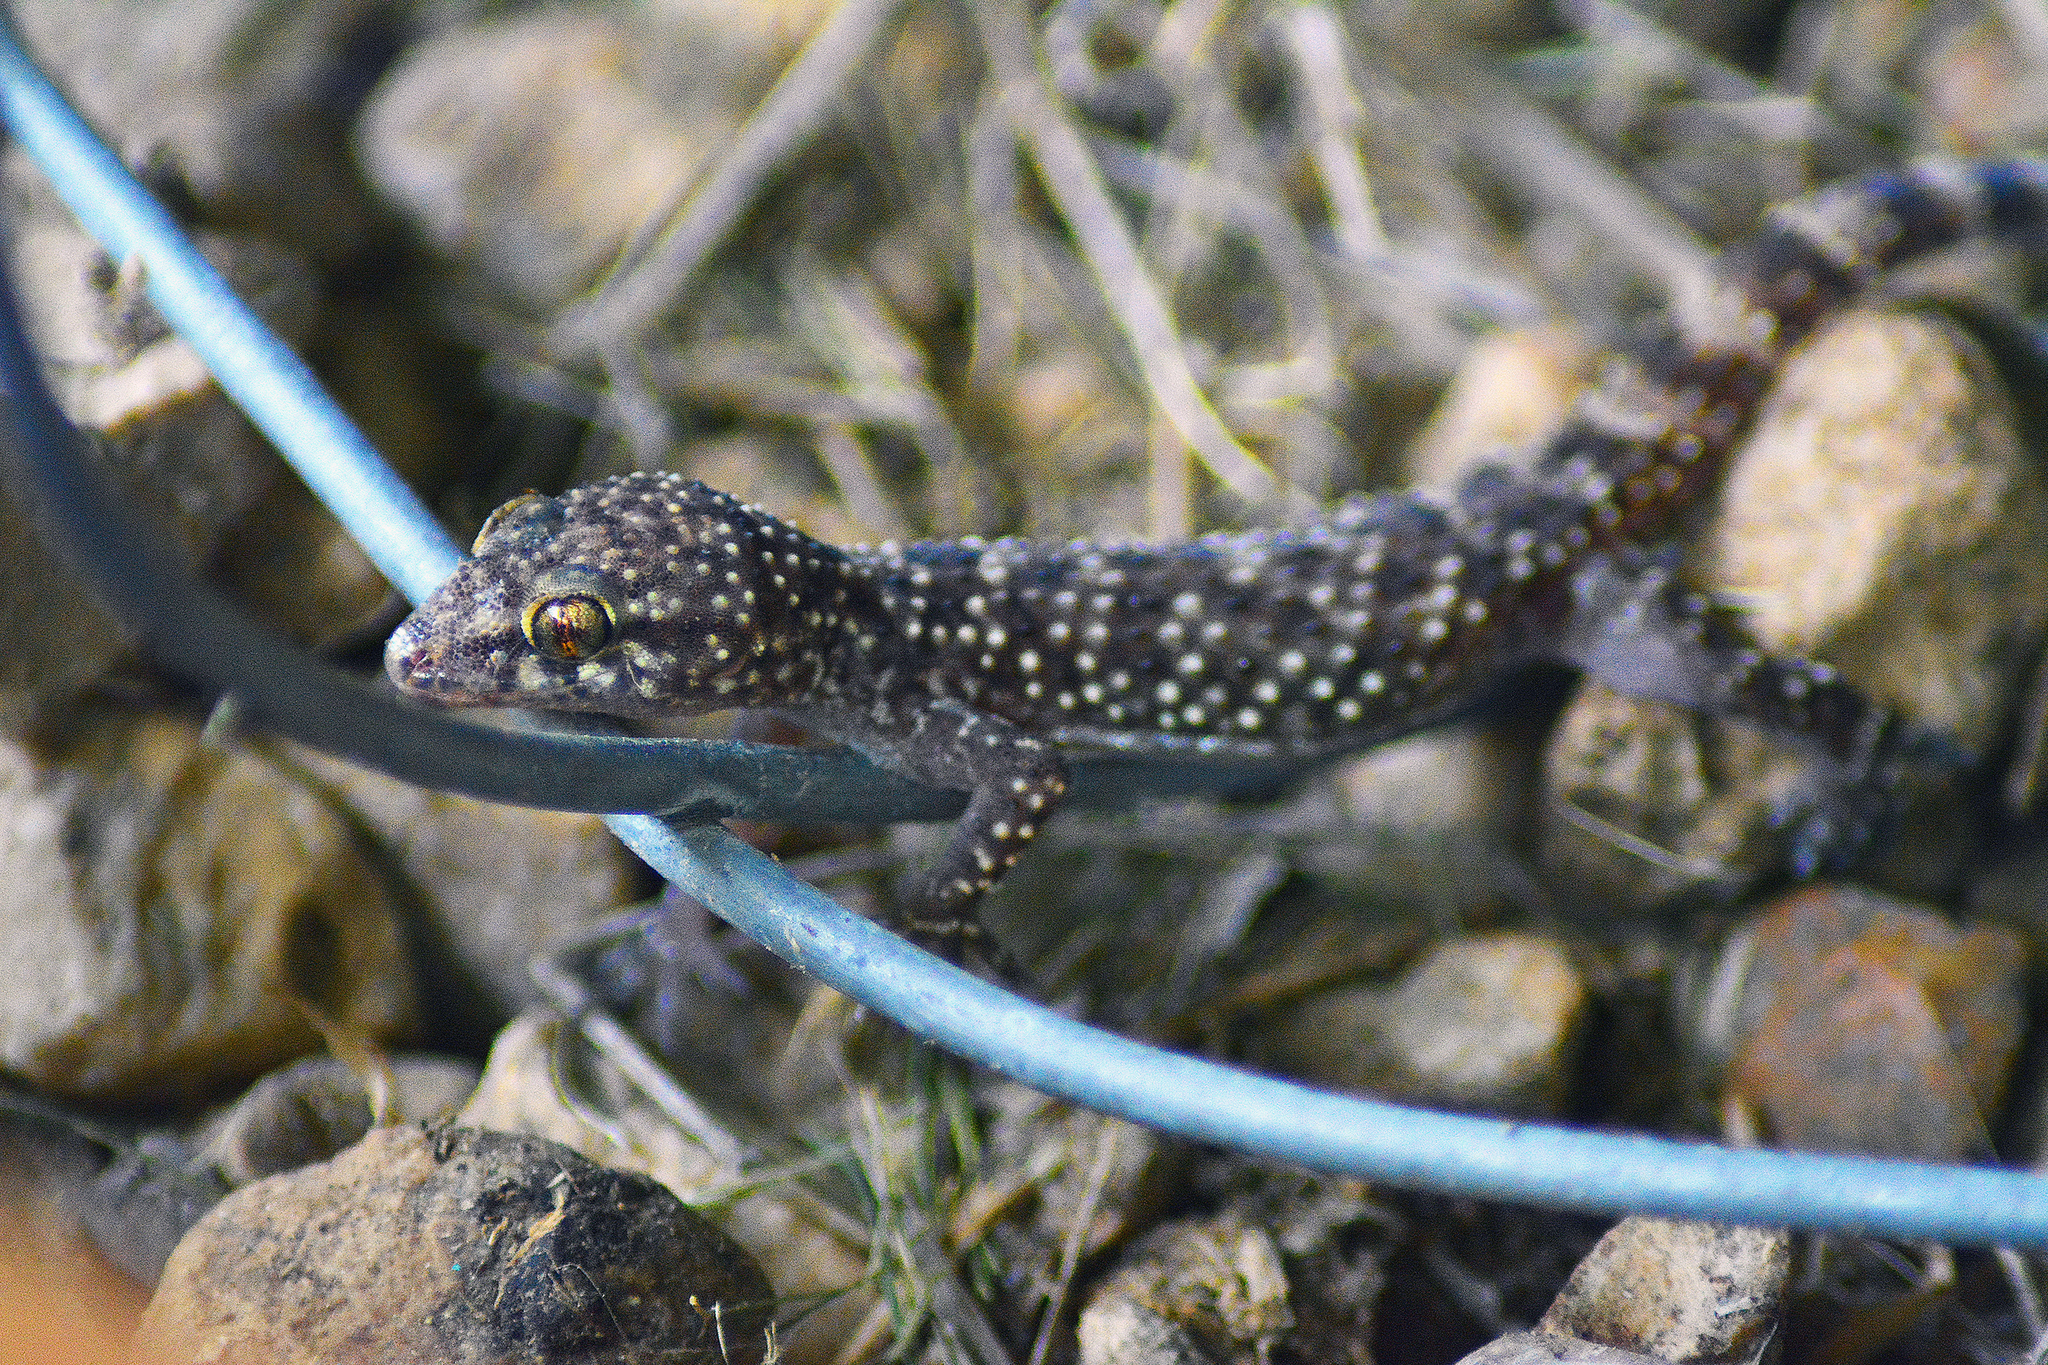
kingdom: Animalia
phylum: Chordata
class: Squamata
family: Gekkonidae
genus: Hemidactylus
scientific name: Hemidactylus turcicus
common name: Turkish gecko
